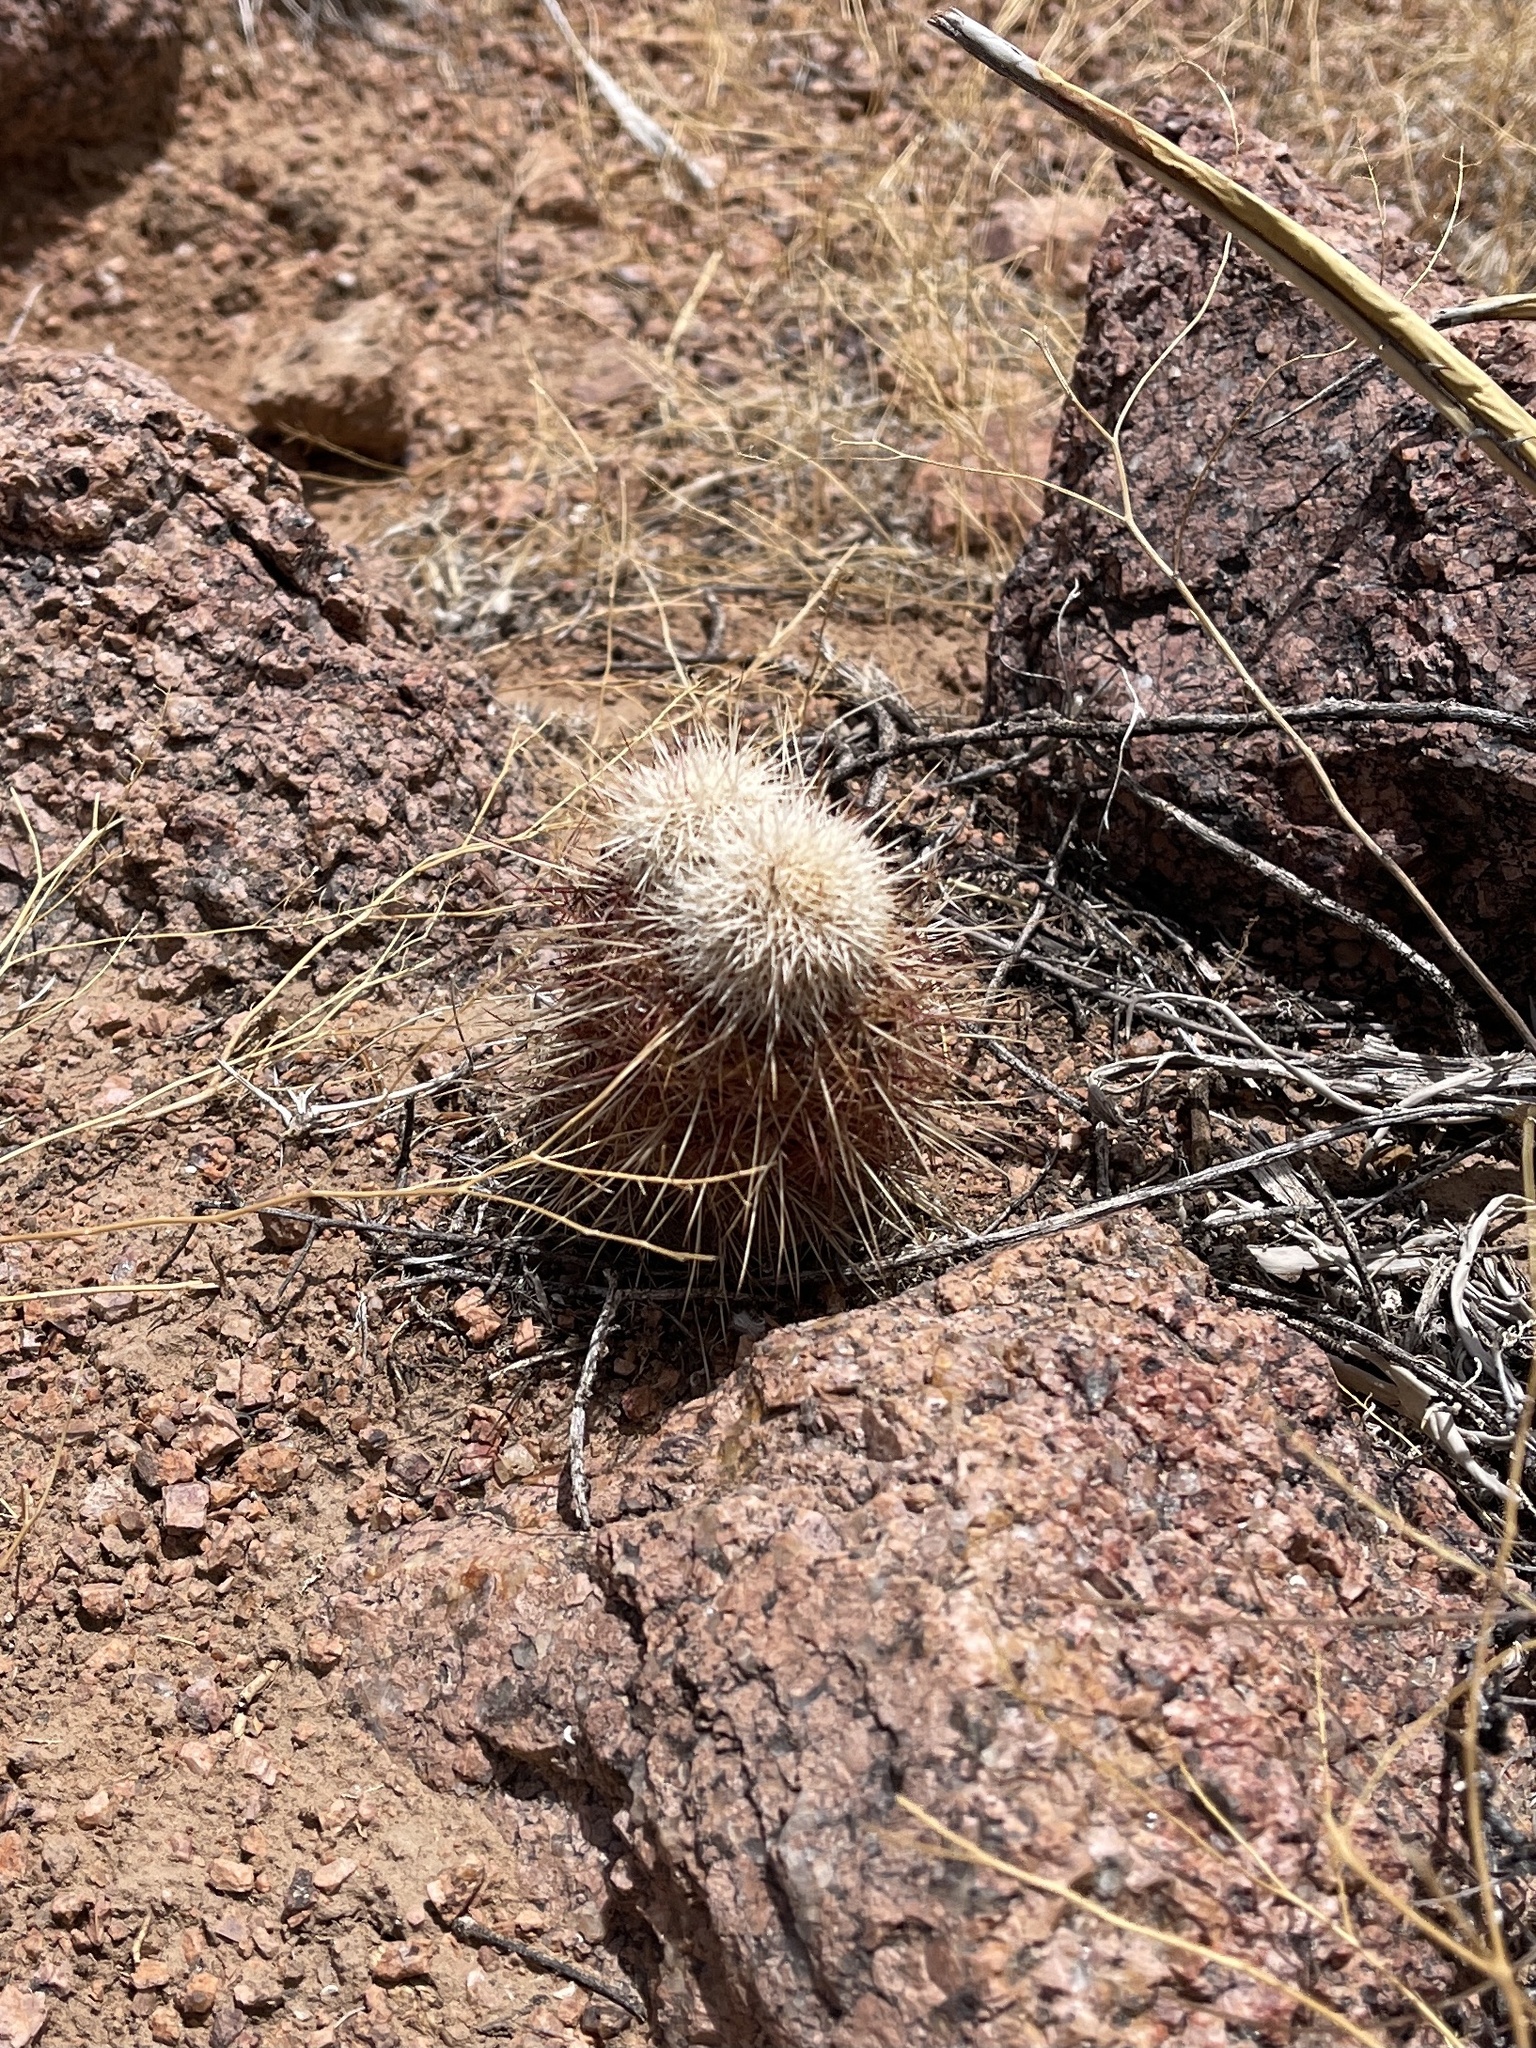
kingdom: Plantae
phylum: Tracheophyta
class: Magnoliopsida
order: Caryophyllales
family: Cactaceae
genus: Echinocereus
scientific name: Echinocereus viridiflorus
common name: Nylon hedgehog cactus
